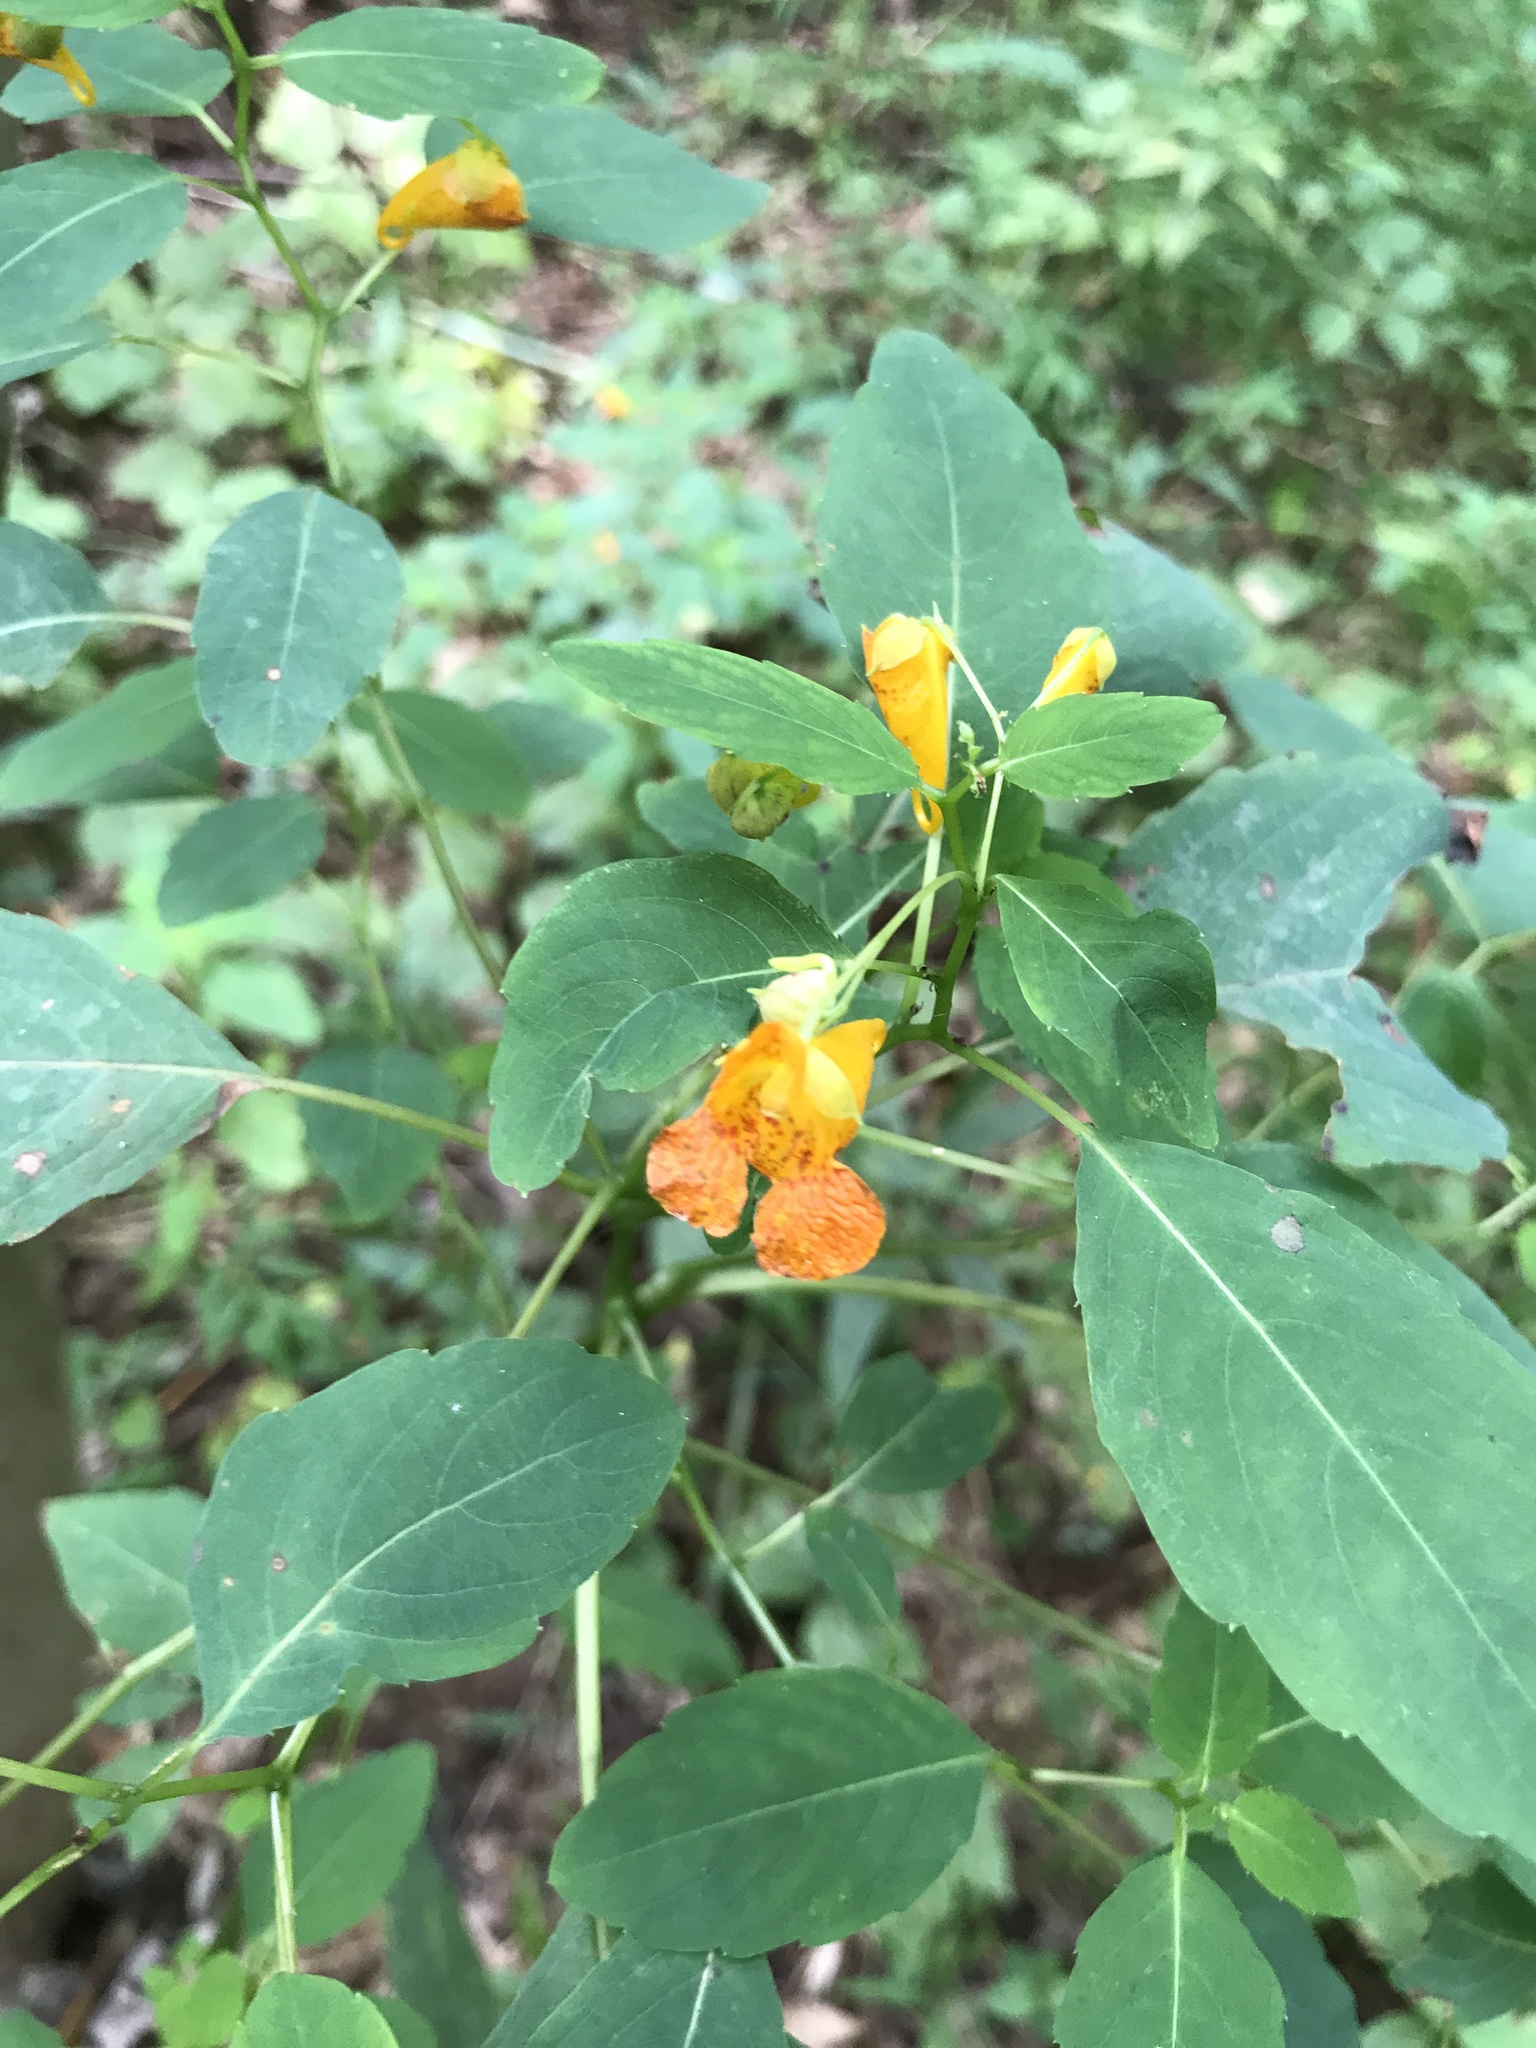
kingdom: Plantae
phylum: Tracheophyta
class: Magnoliopsida
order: Ericales
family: Balsaminaceae
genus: Impatiens
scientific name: Impatiens capensis
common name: Orange balsam
